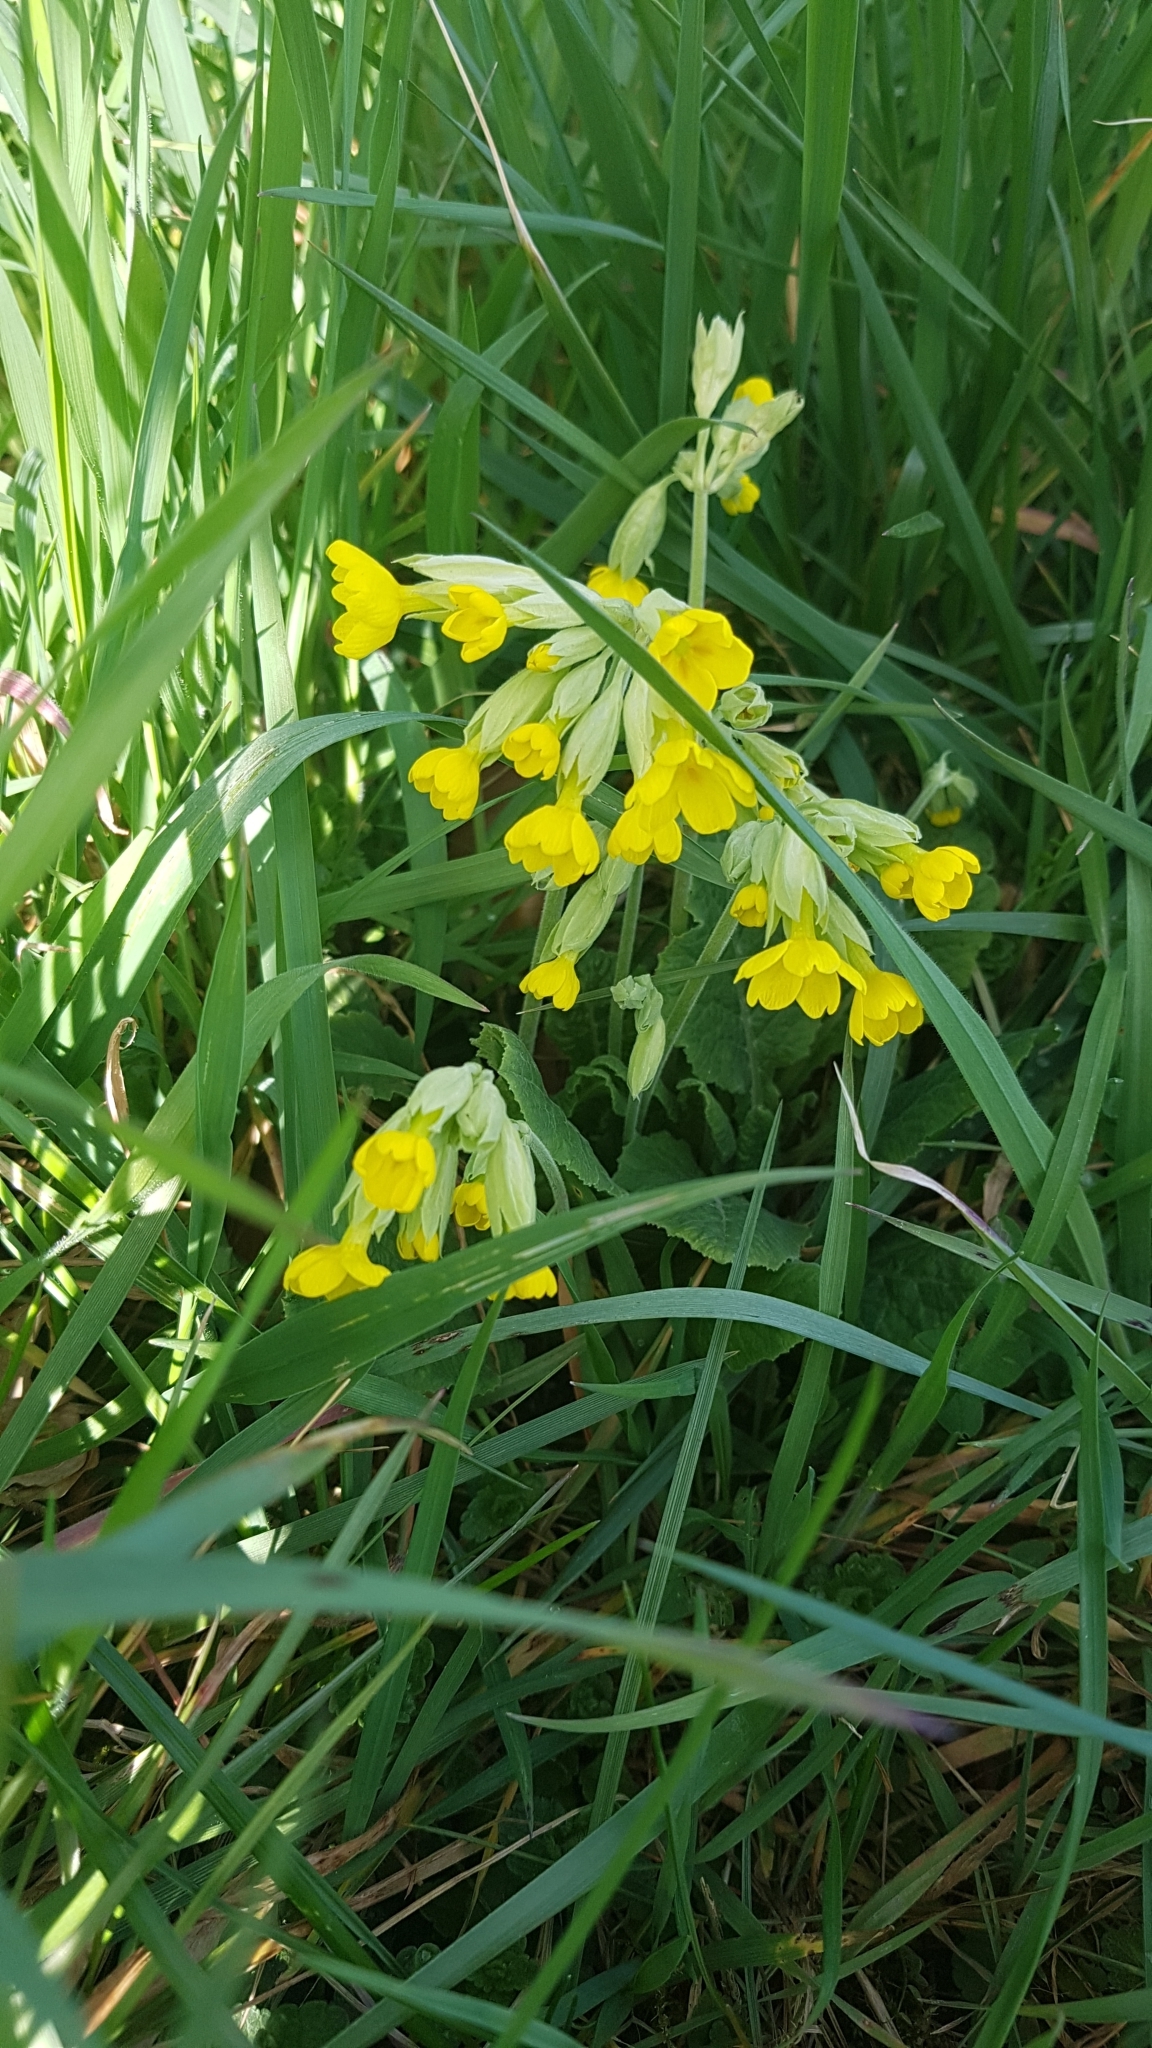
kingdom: Plantae
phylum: Tracheophyta
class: Magnoliopsida
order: Ericales
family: Primulaceae
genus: Primula
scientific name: Primula veris
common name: Cowslip
